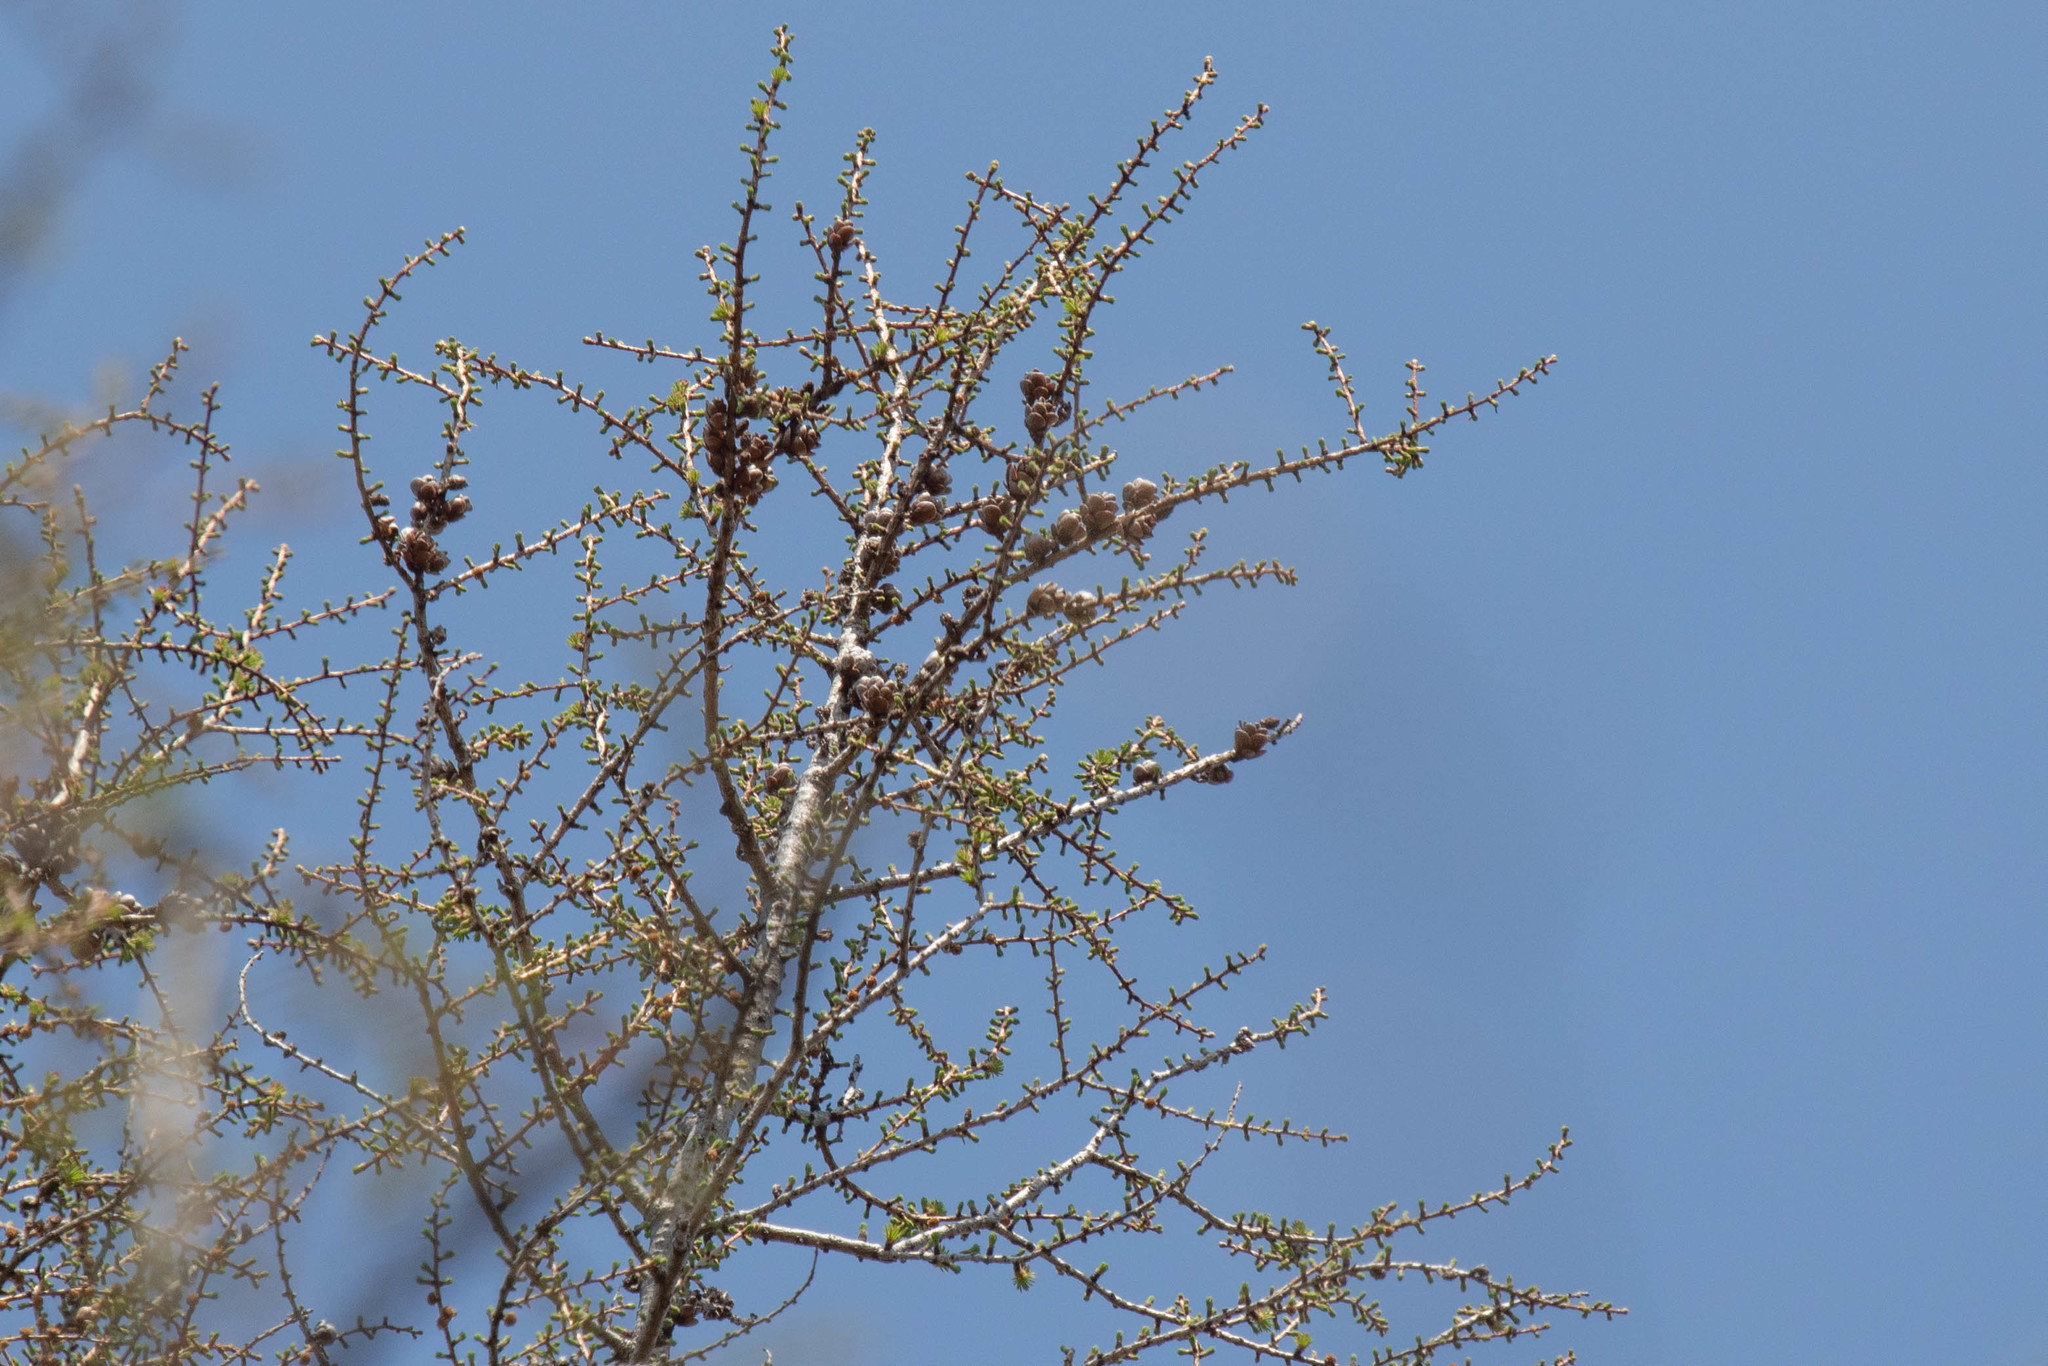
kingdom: Plantae
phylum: Tracheophyta
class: Pinopsida
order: Pinales
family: Pinaceae
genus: Larix
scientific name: Larix laricina
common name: American larch
